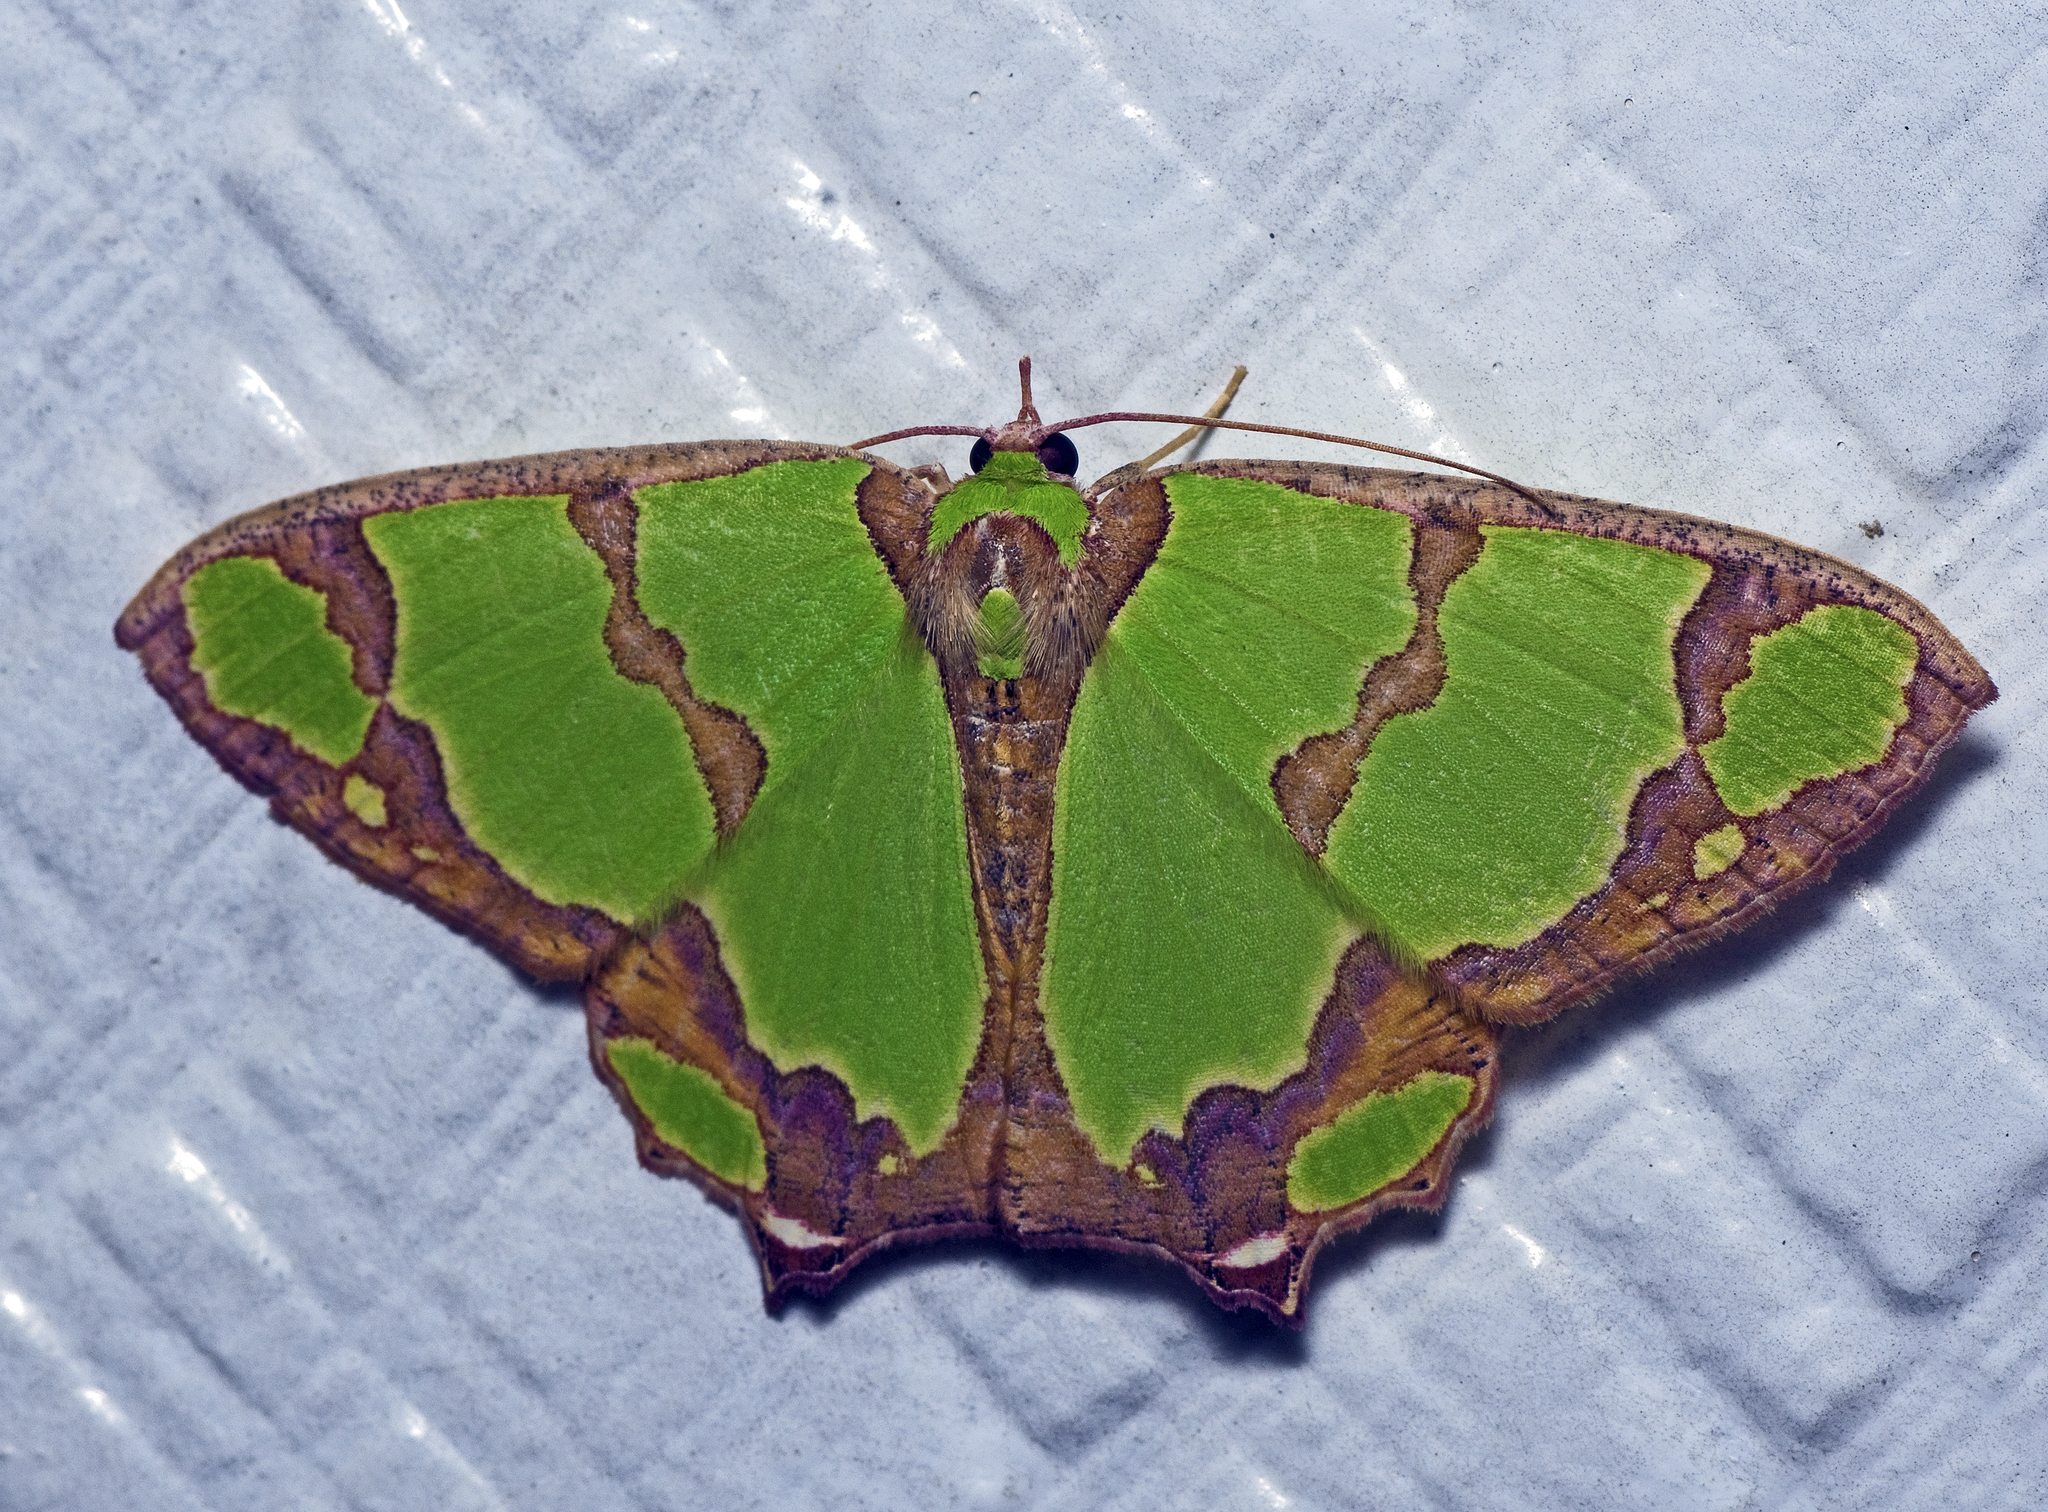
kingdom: Animalia
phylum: Arthropoda
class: Insecta
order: Lepidoptera
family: Geometridae
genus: Agathia
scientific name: Agathia prasinaspis
